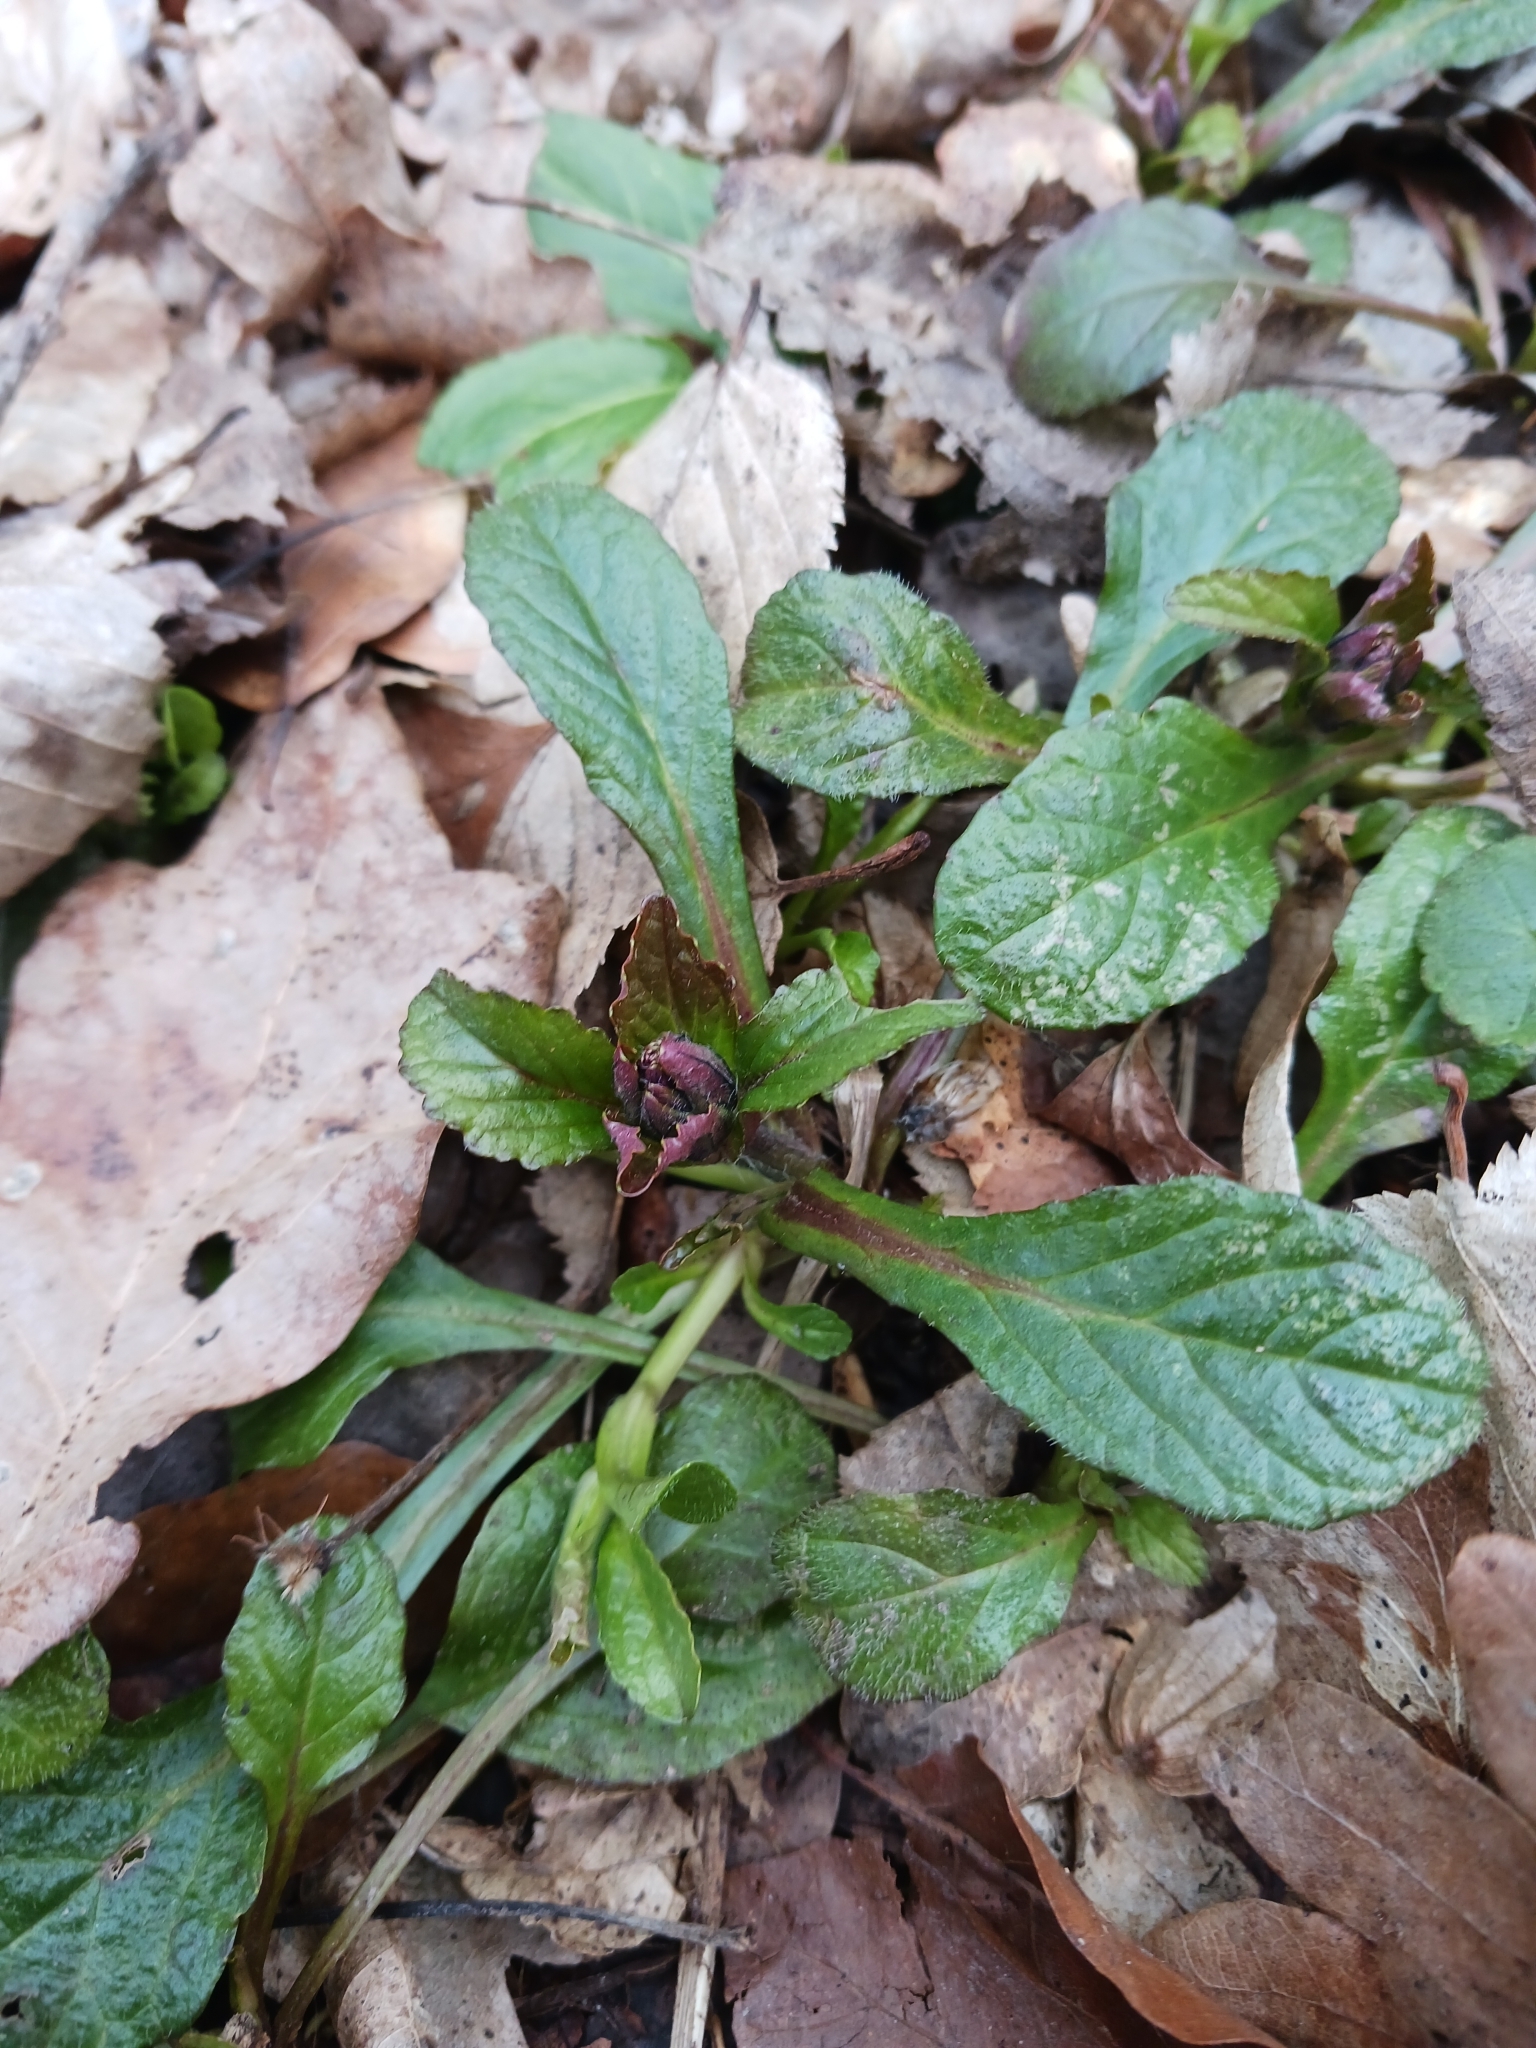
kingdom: Plantae
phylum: Tracheophyta
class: Magnoliopsida
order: Lamiales
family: Lamiaceae
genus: Ajuga
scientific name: Ajuga reptans
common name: Bugle
